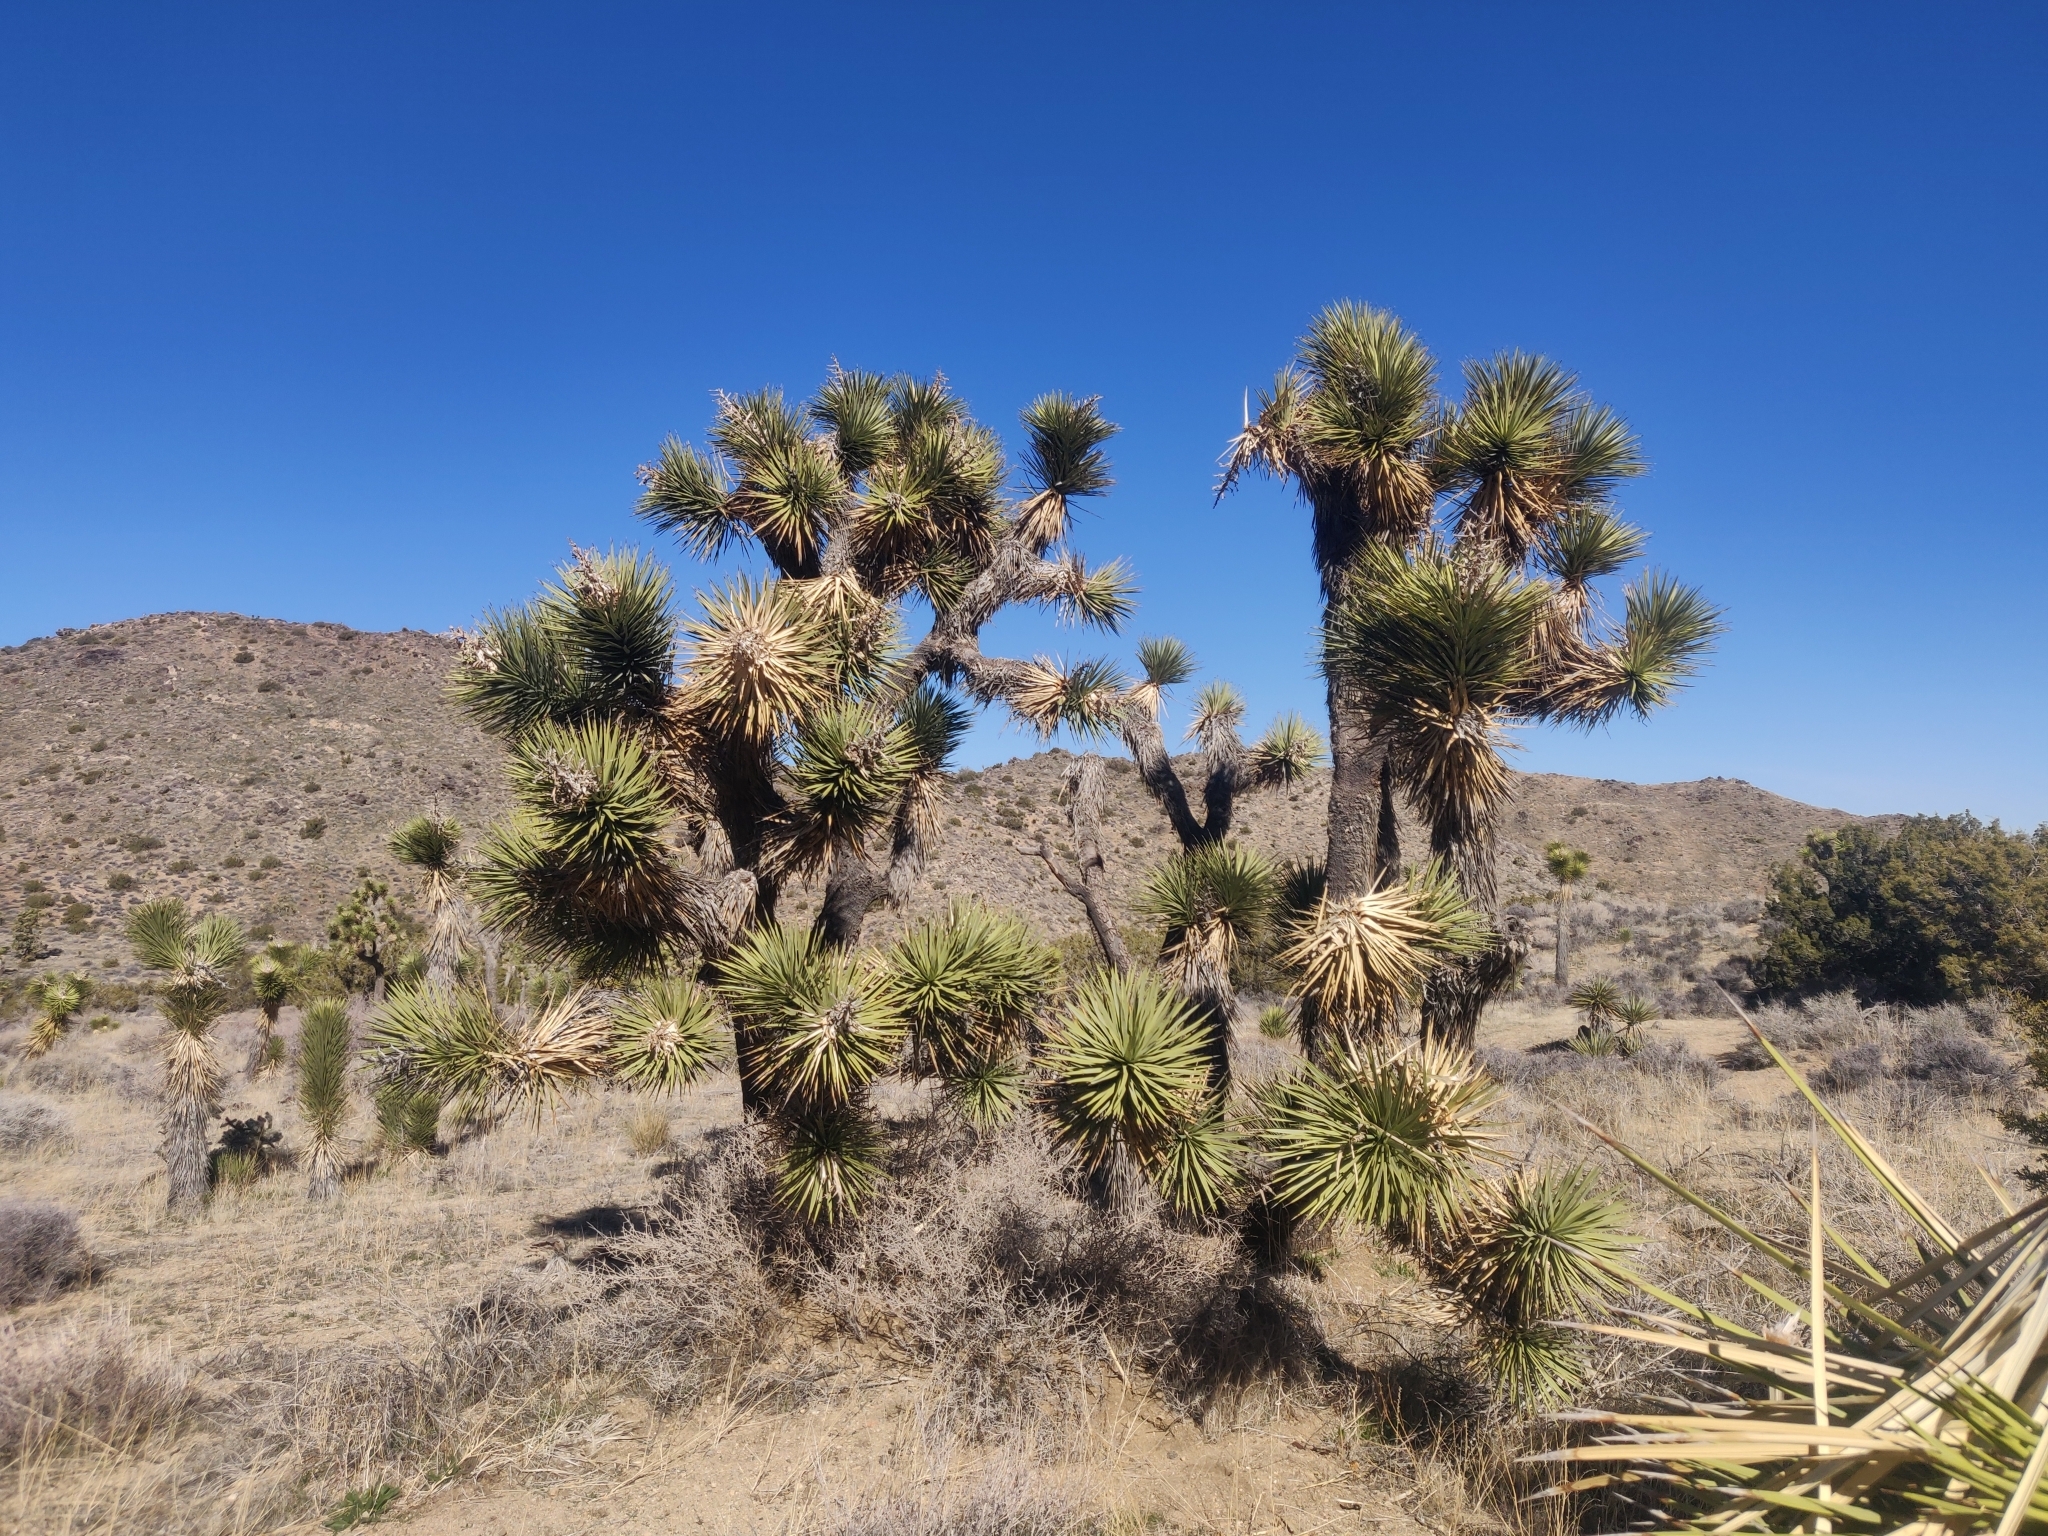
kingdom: Plantae
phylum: Tracheophyta
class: Liliopsida
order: Asparagales
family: Asparagaceae
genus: Yucca
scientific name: Yucca brevifolia
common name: Joshua tree
